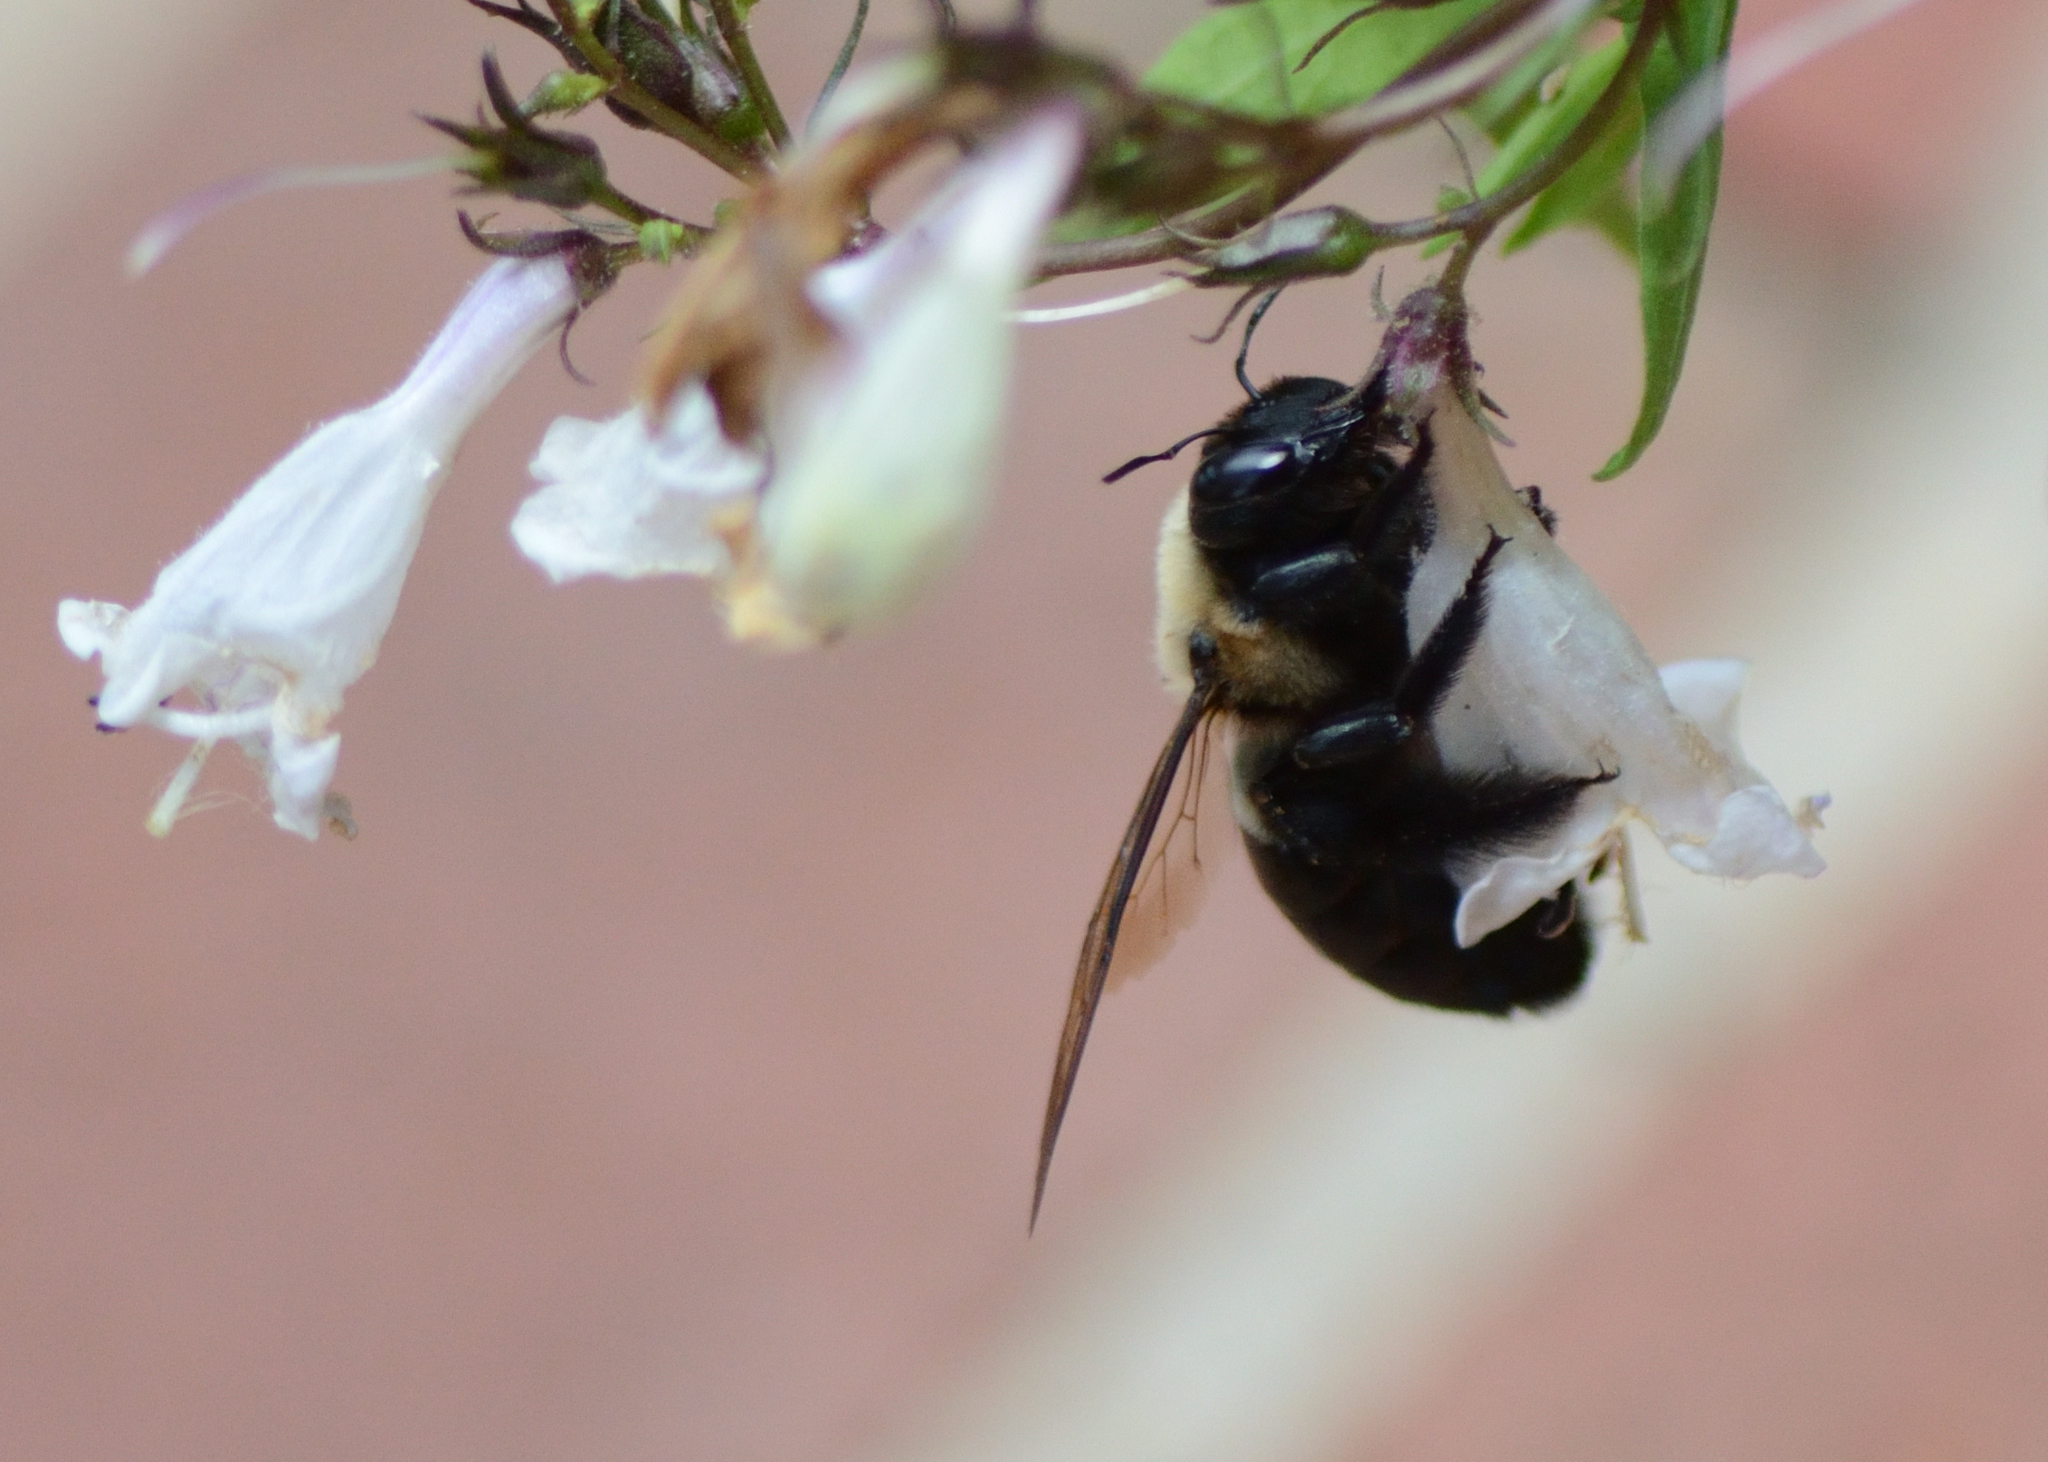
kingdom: Animalia
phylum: Arthropoda
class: Insecta
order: Hymenoptera
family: Apidae
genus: Xylocopa
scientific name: Xylocopa virginica
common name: Carpenter bee
